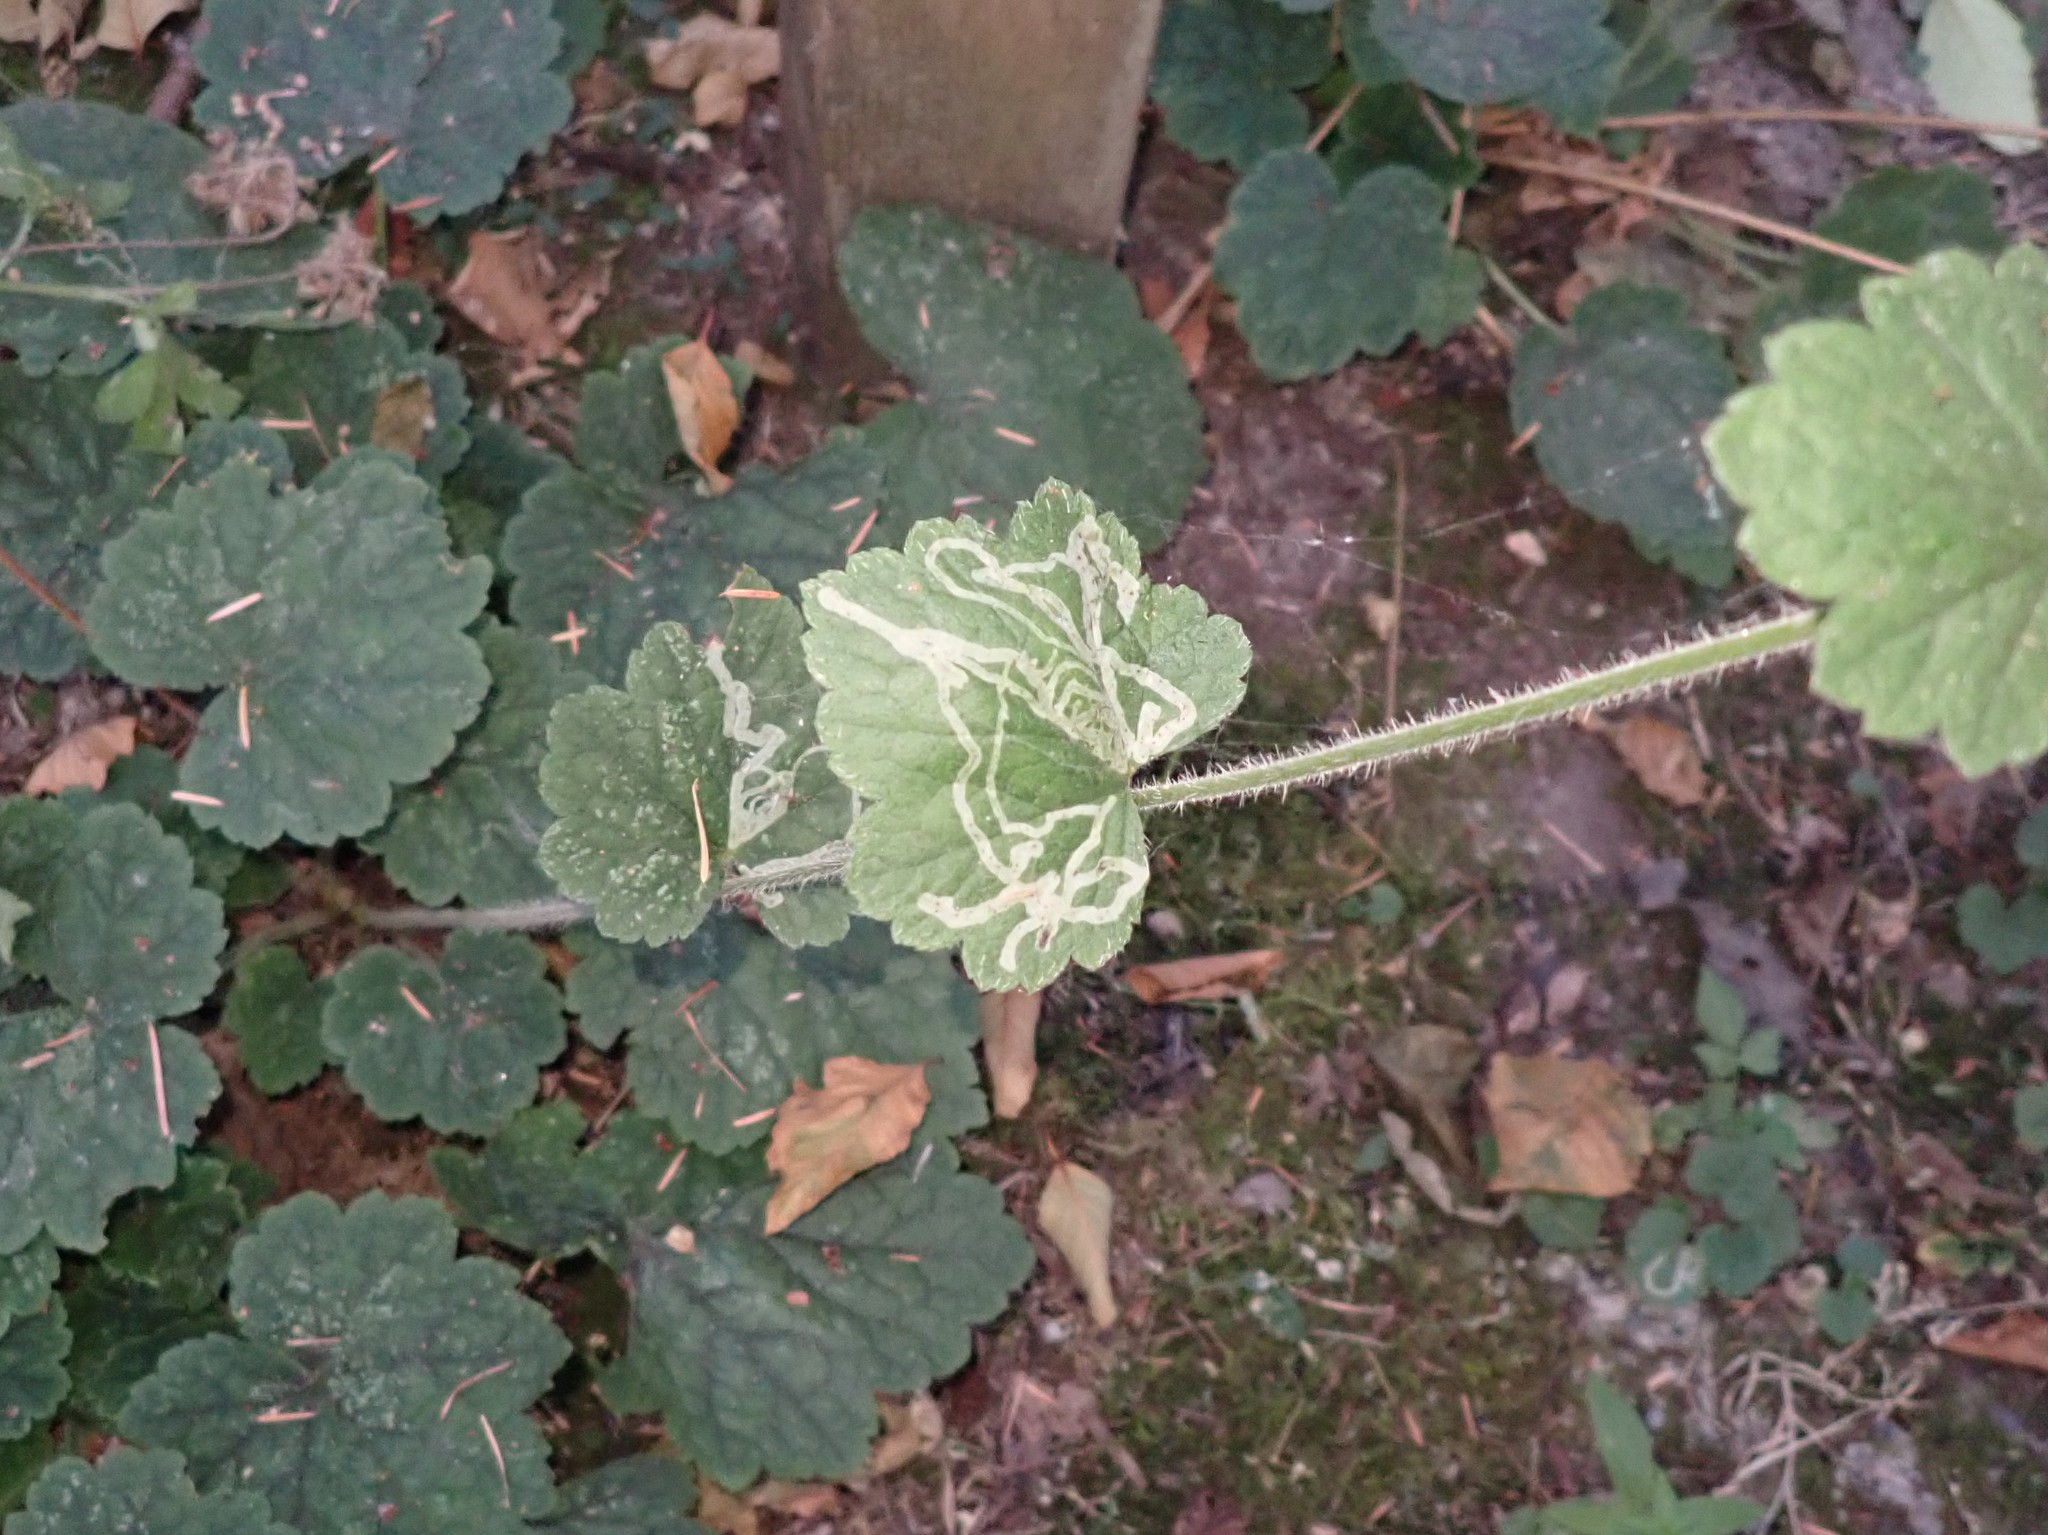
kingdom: Animalia
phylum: Arthropoda
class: Insecta
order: Diptera
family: Agromyzidae
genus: Phytomyza
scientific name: Phytomyza tiarellae
